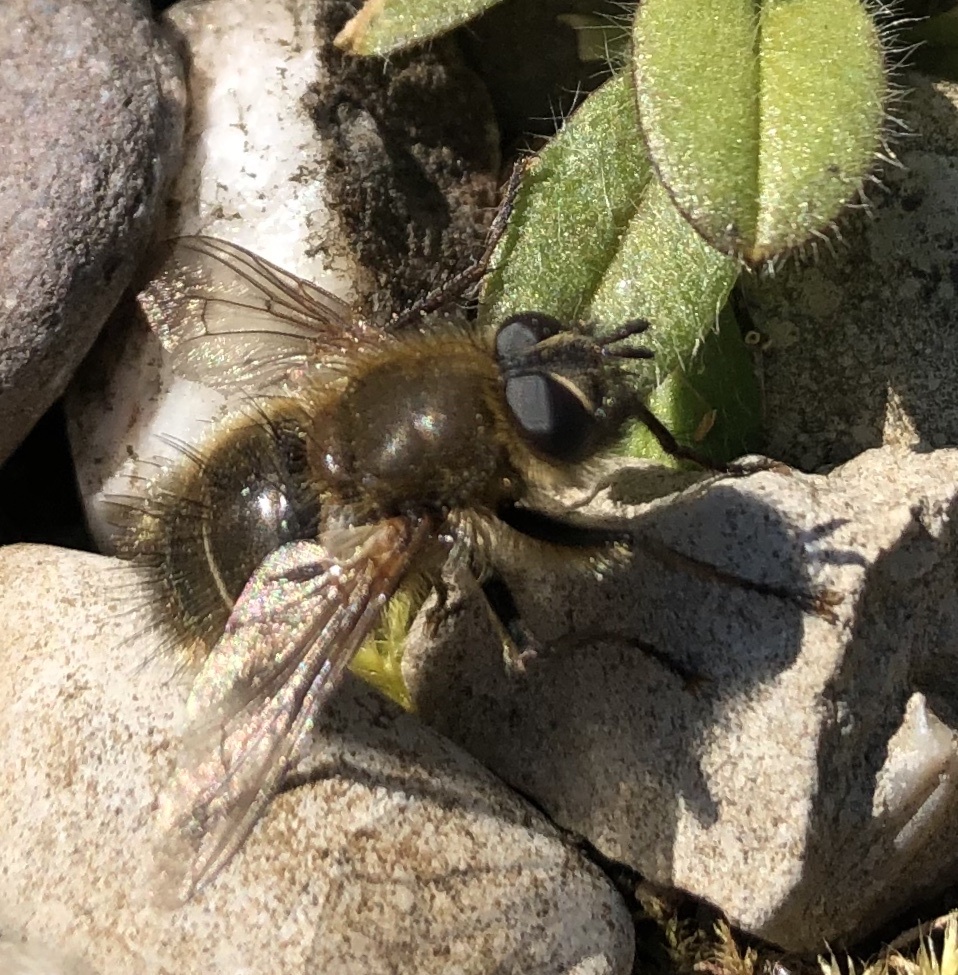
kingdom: Animalia
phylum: Arthropoda
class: Insecta
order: Diptera
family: Tachinidae
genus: Tachina
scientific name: Tachina ursina
